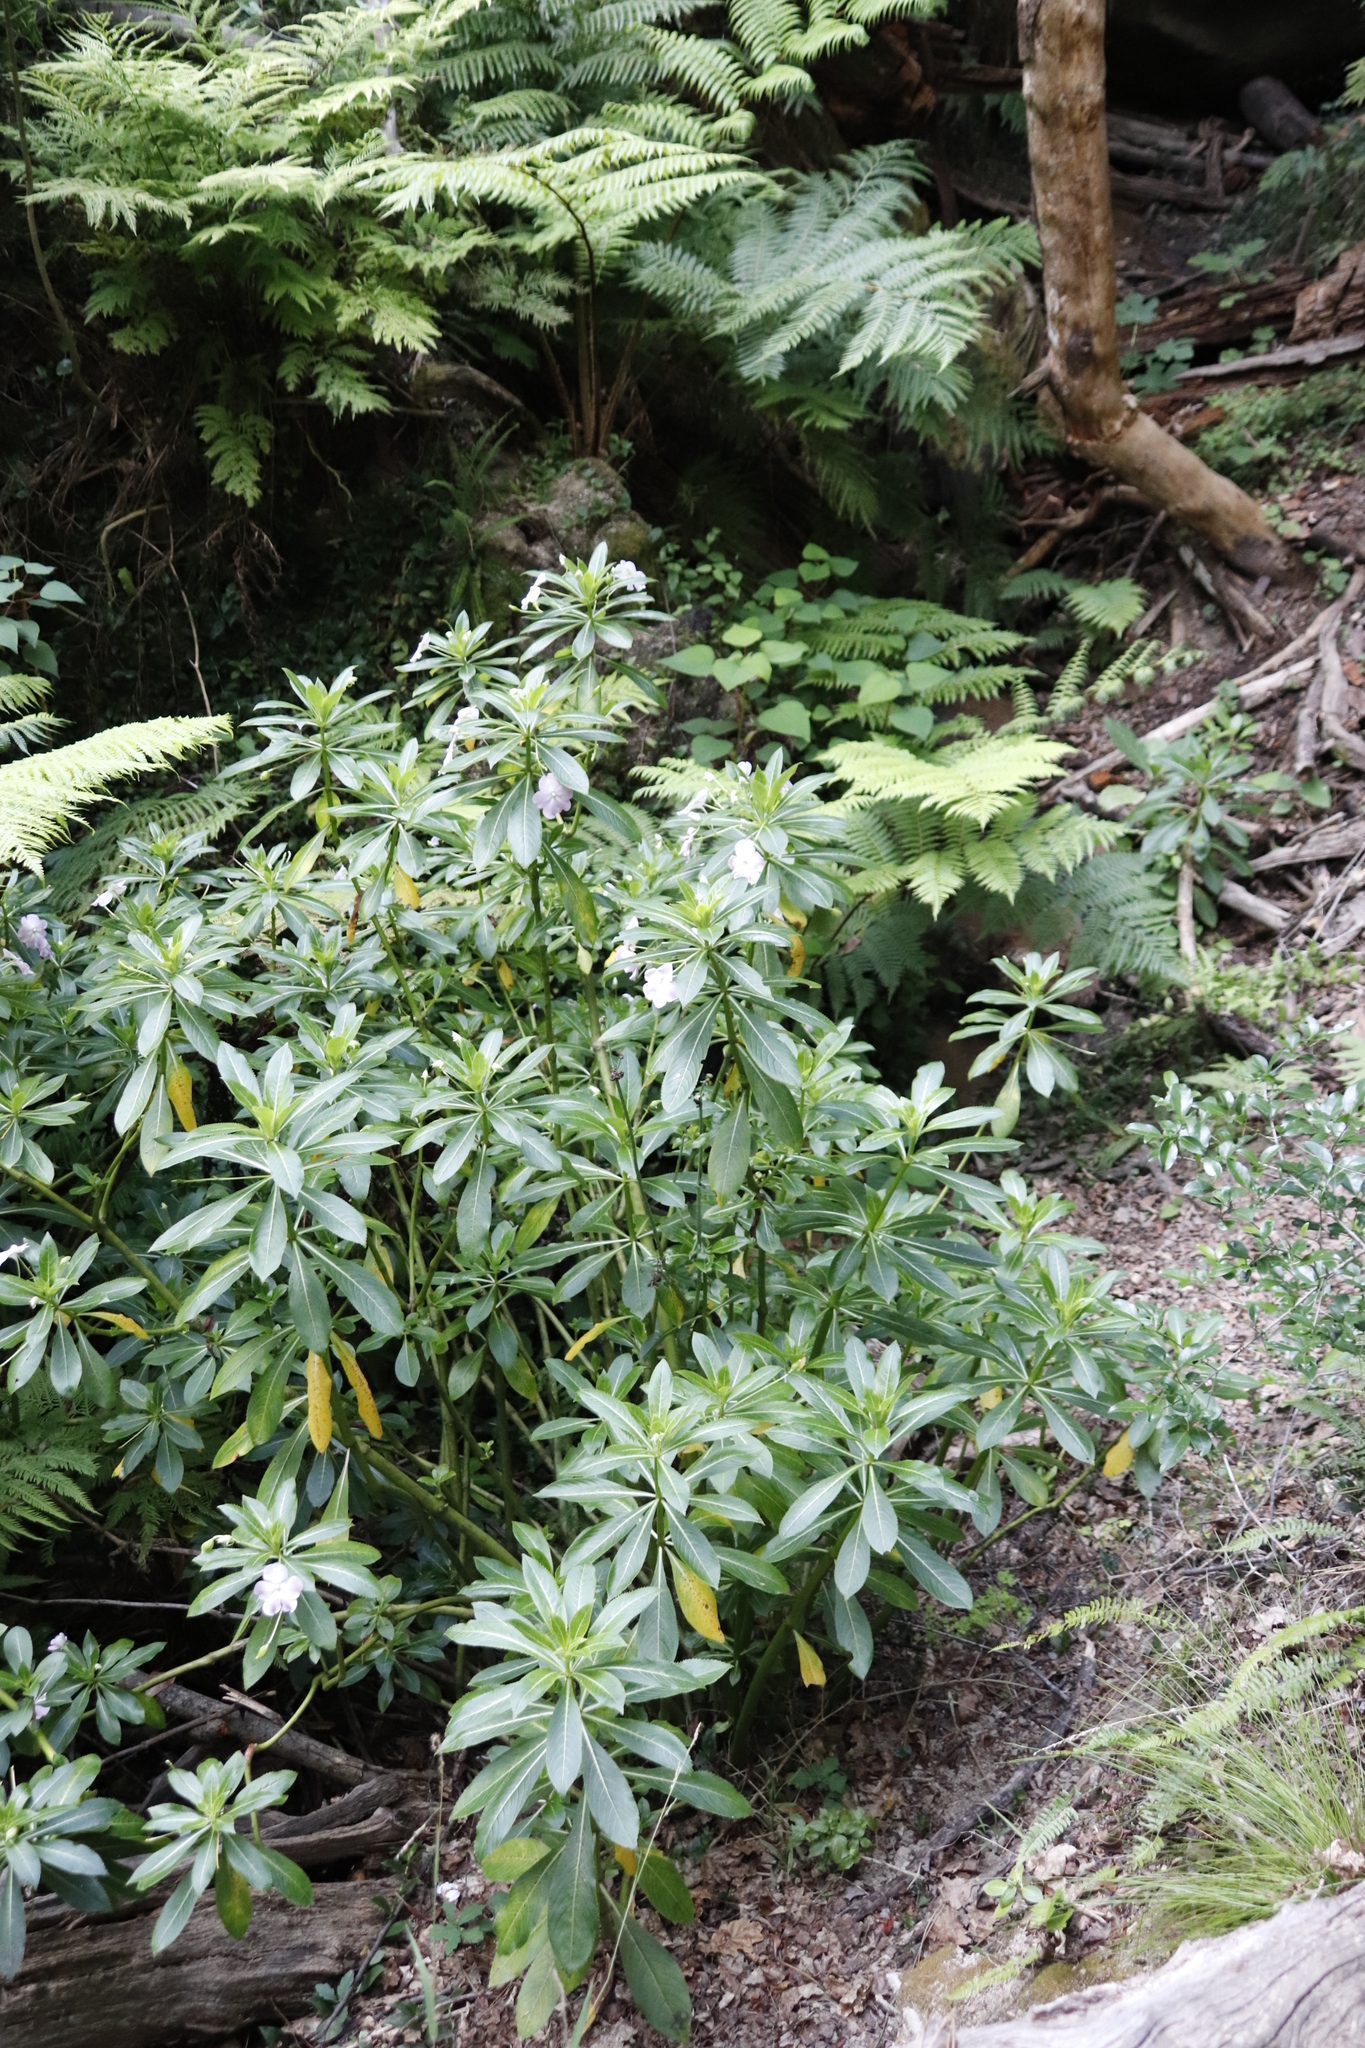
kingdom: Plantae
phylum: Tracheophyta
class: Magnoliopsida
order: Ericales
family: Balsaminaceae
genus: Impatiens
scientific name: Impatiens sodenii
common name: Oliver's touch-me-not
